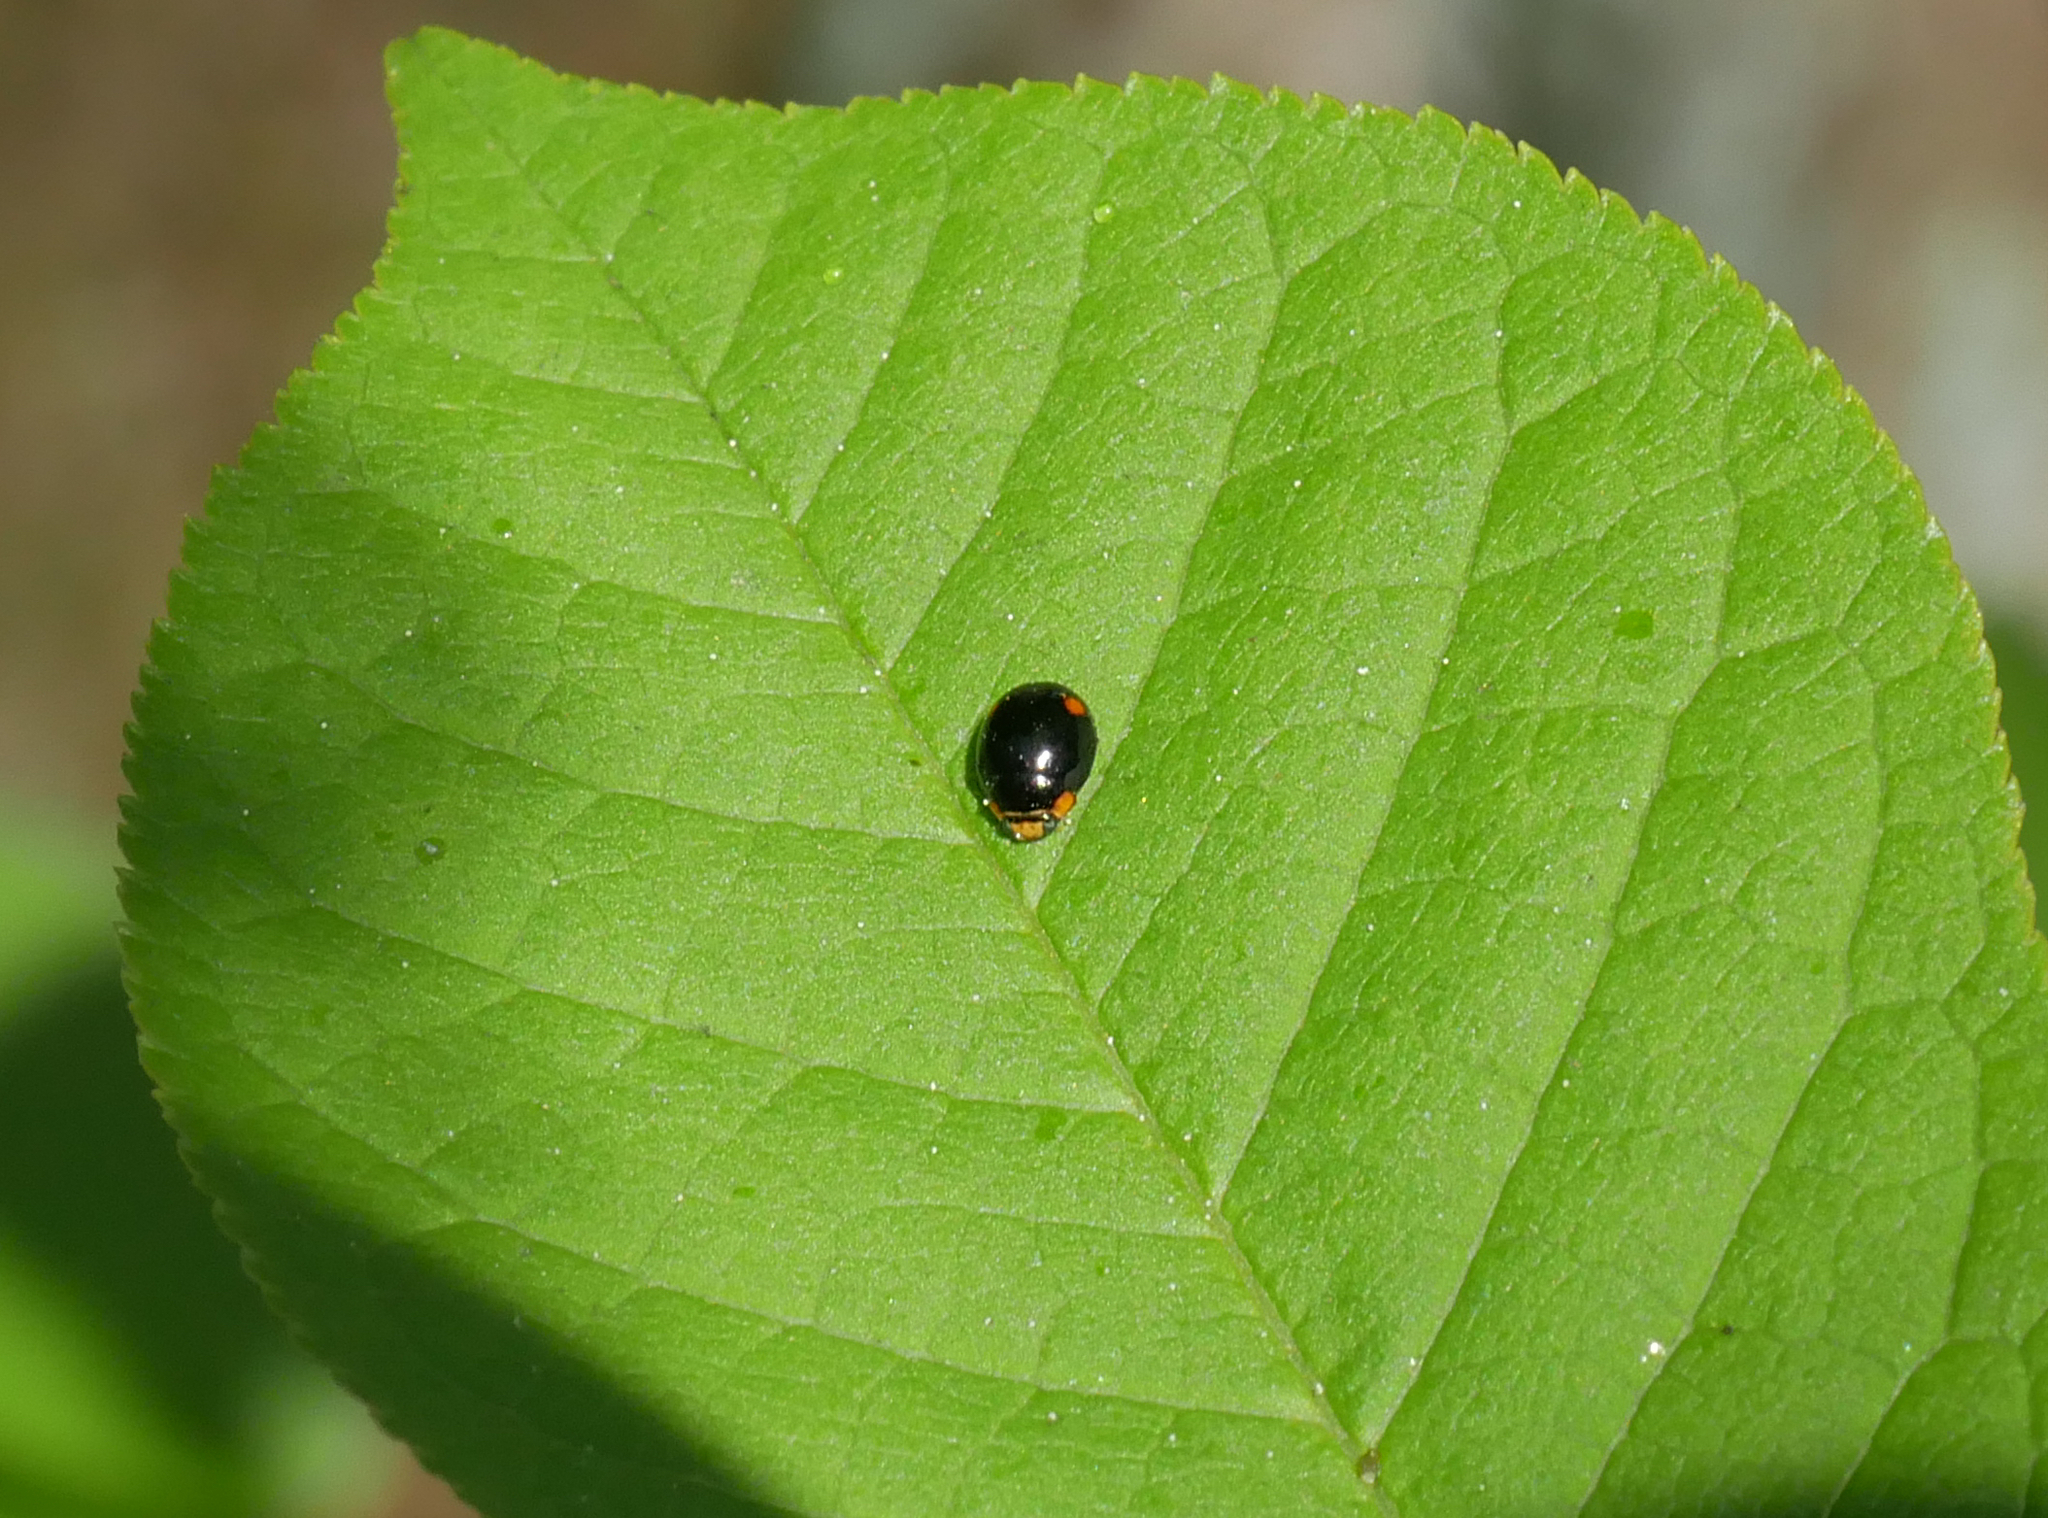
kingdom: Animalia
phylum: Arthropoda
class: Insecta
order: Coleoptera
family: Coccinellidae
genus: Hyperaspis
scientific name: Hyperaspis campestris
